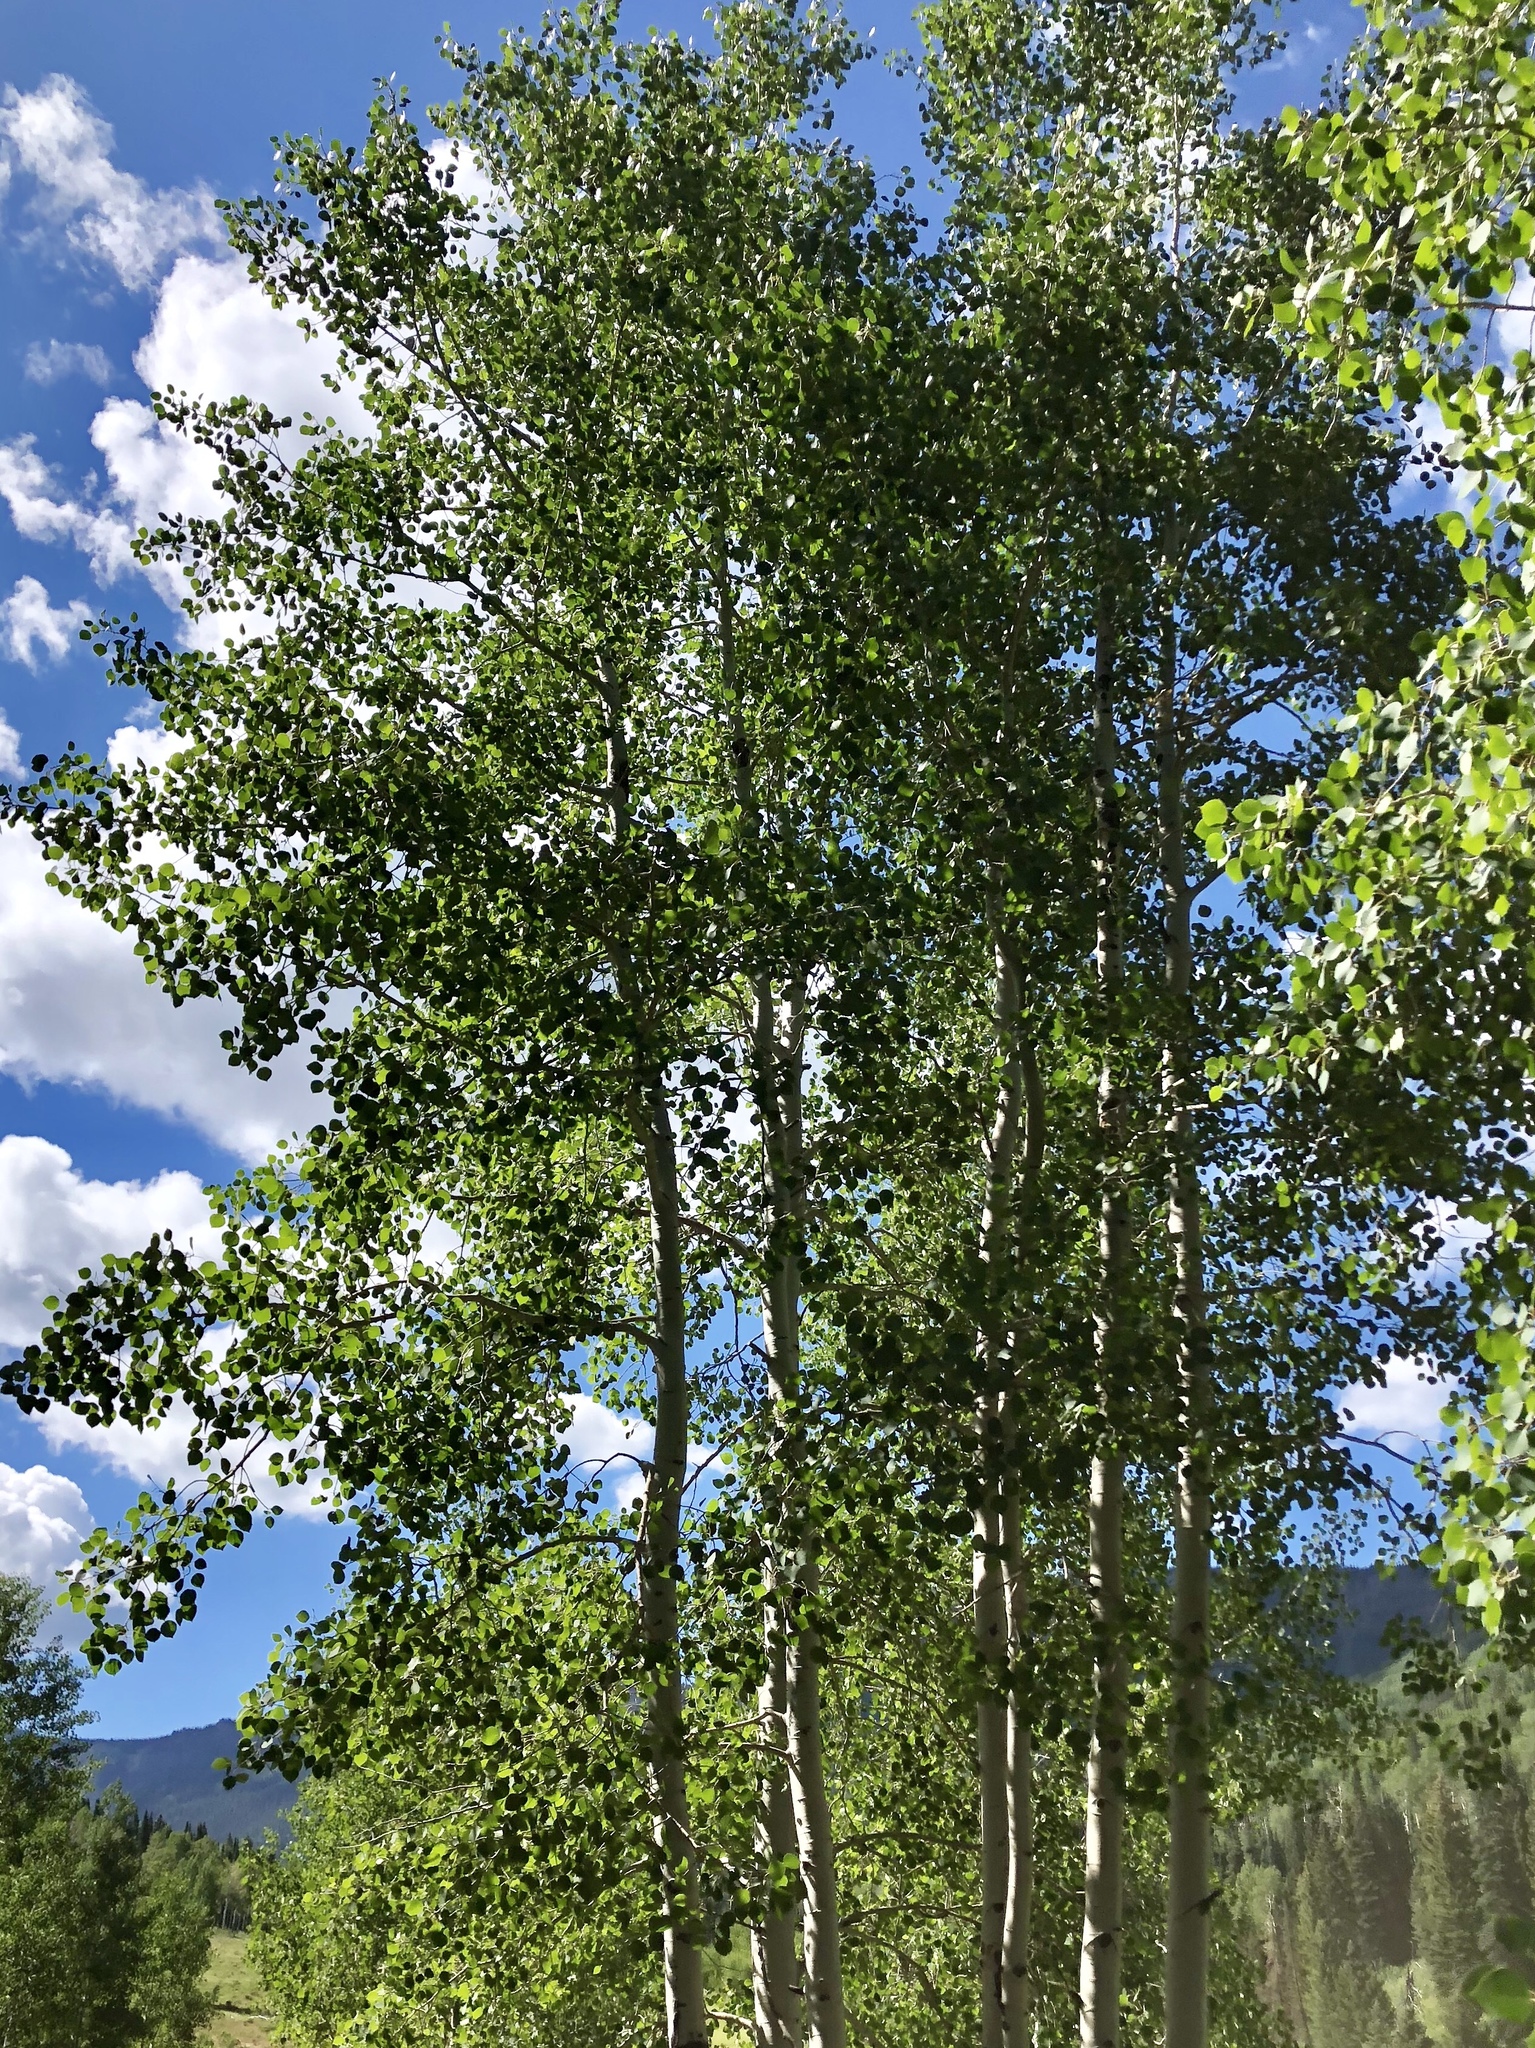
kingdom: Plantae
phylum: Tracheophyta
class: Magnoliopsida
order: Malpighiales
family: Salicaceae
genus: Populus
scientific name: Populus tremuloides
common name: Quaking aspen
